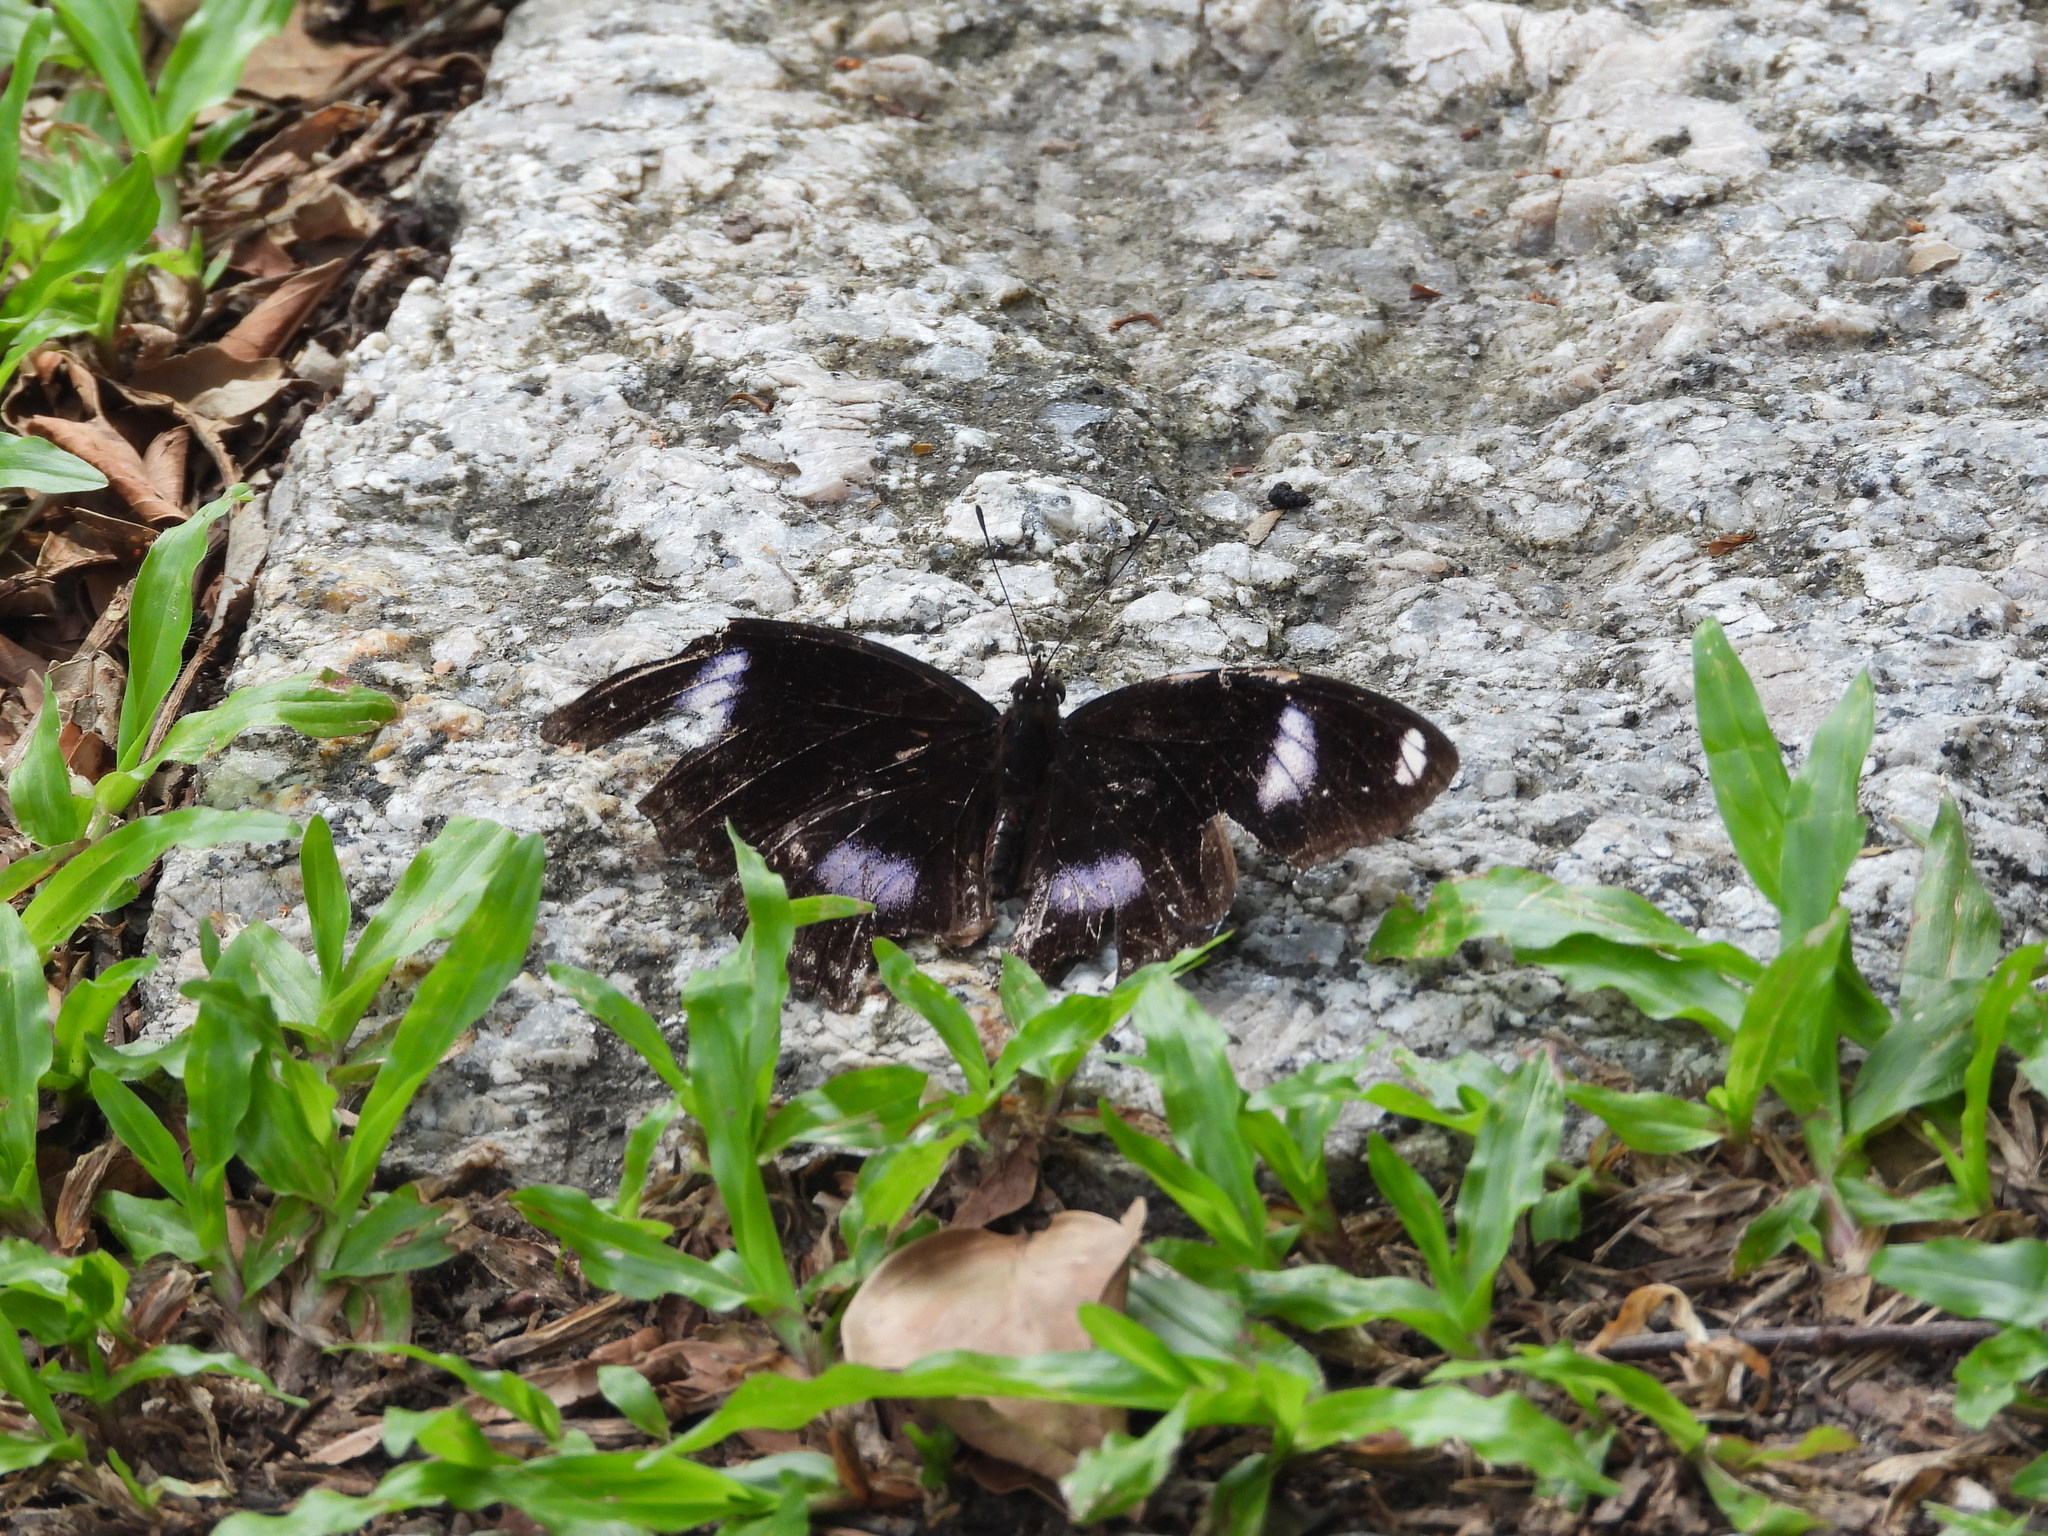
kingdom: Animalia
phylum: Arthropoda
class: Insecta
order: Lepidoptera
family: Nymphalidae
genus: Hypolimnas
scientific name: Hypolimnas bolina
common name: Great eggfly
